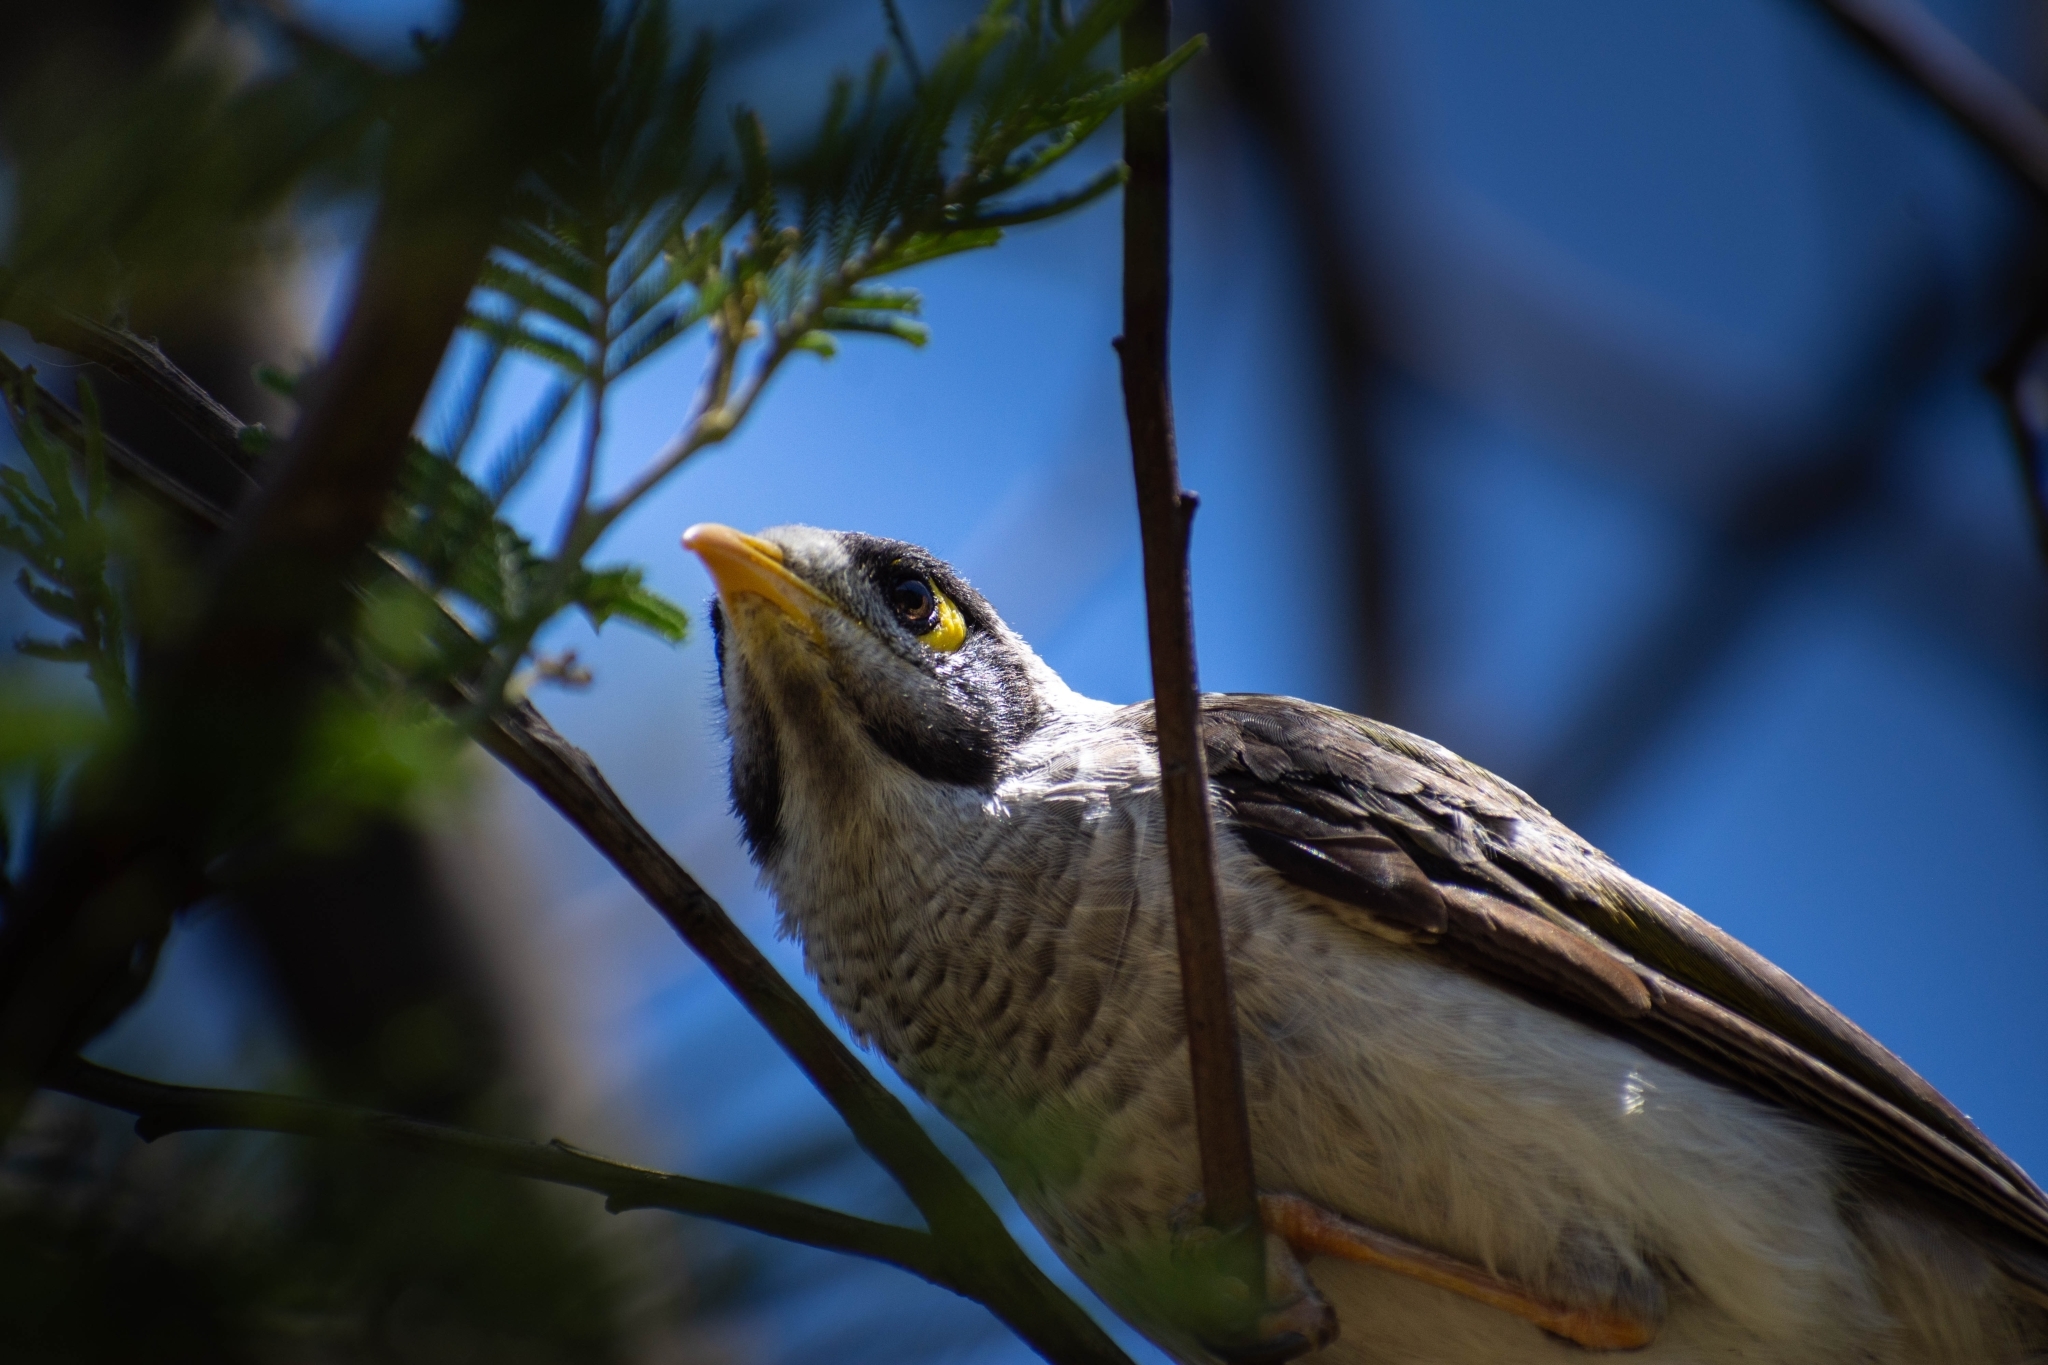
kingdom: Animalia
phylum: Chordata
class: Aves
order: Passeriformes
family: Meliphagidae
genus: Manorina
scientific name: Manorina melanocephala
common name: Noisy miner
